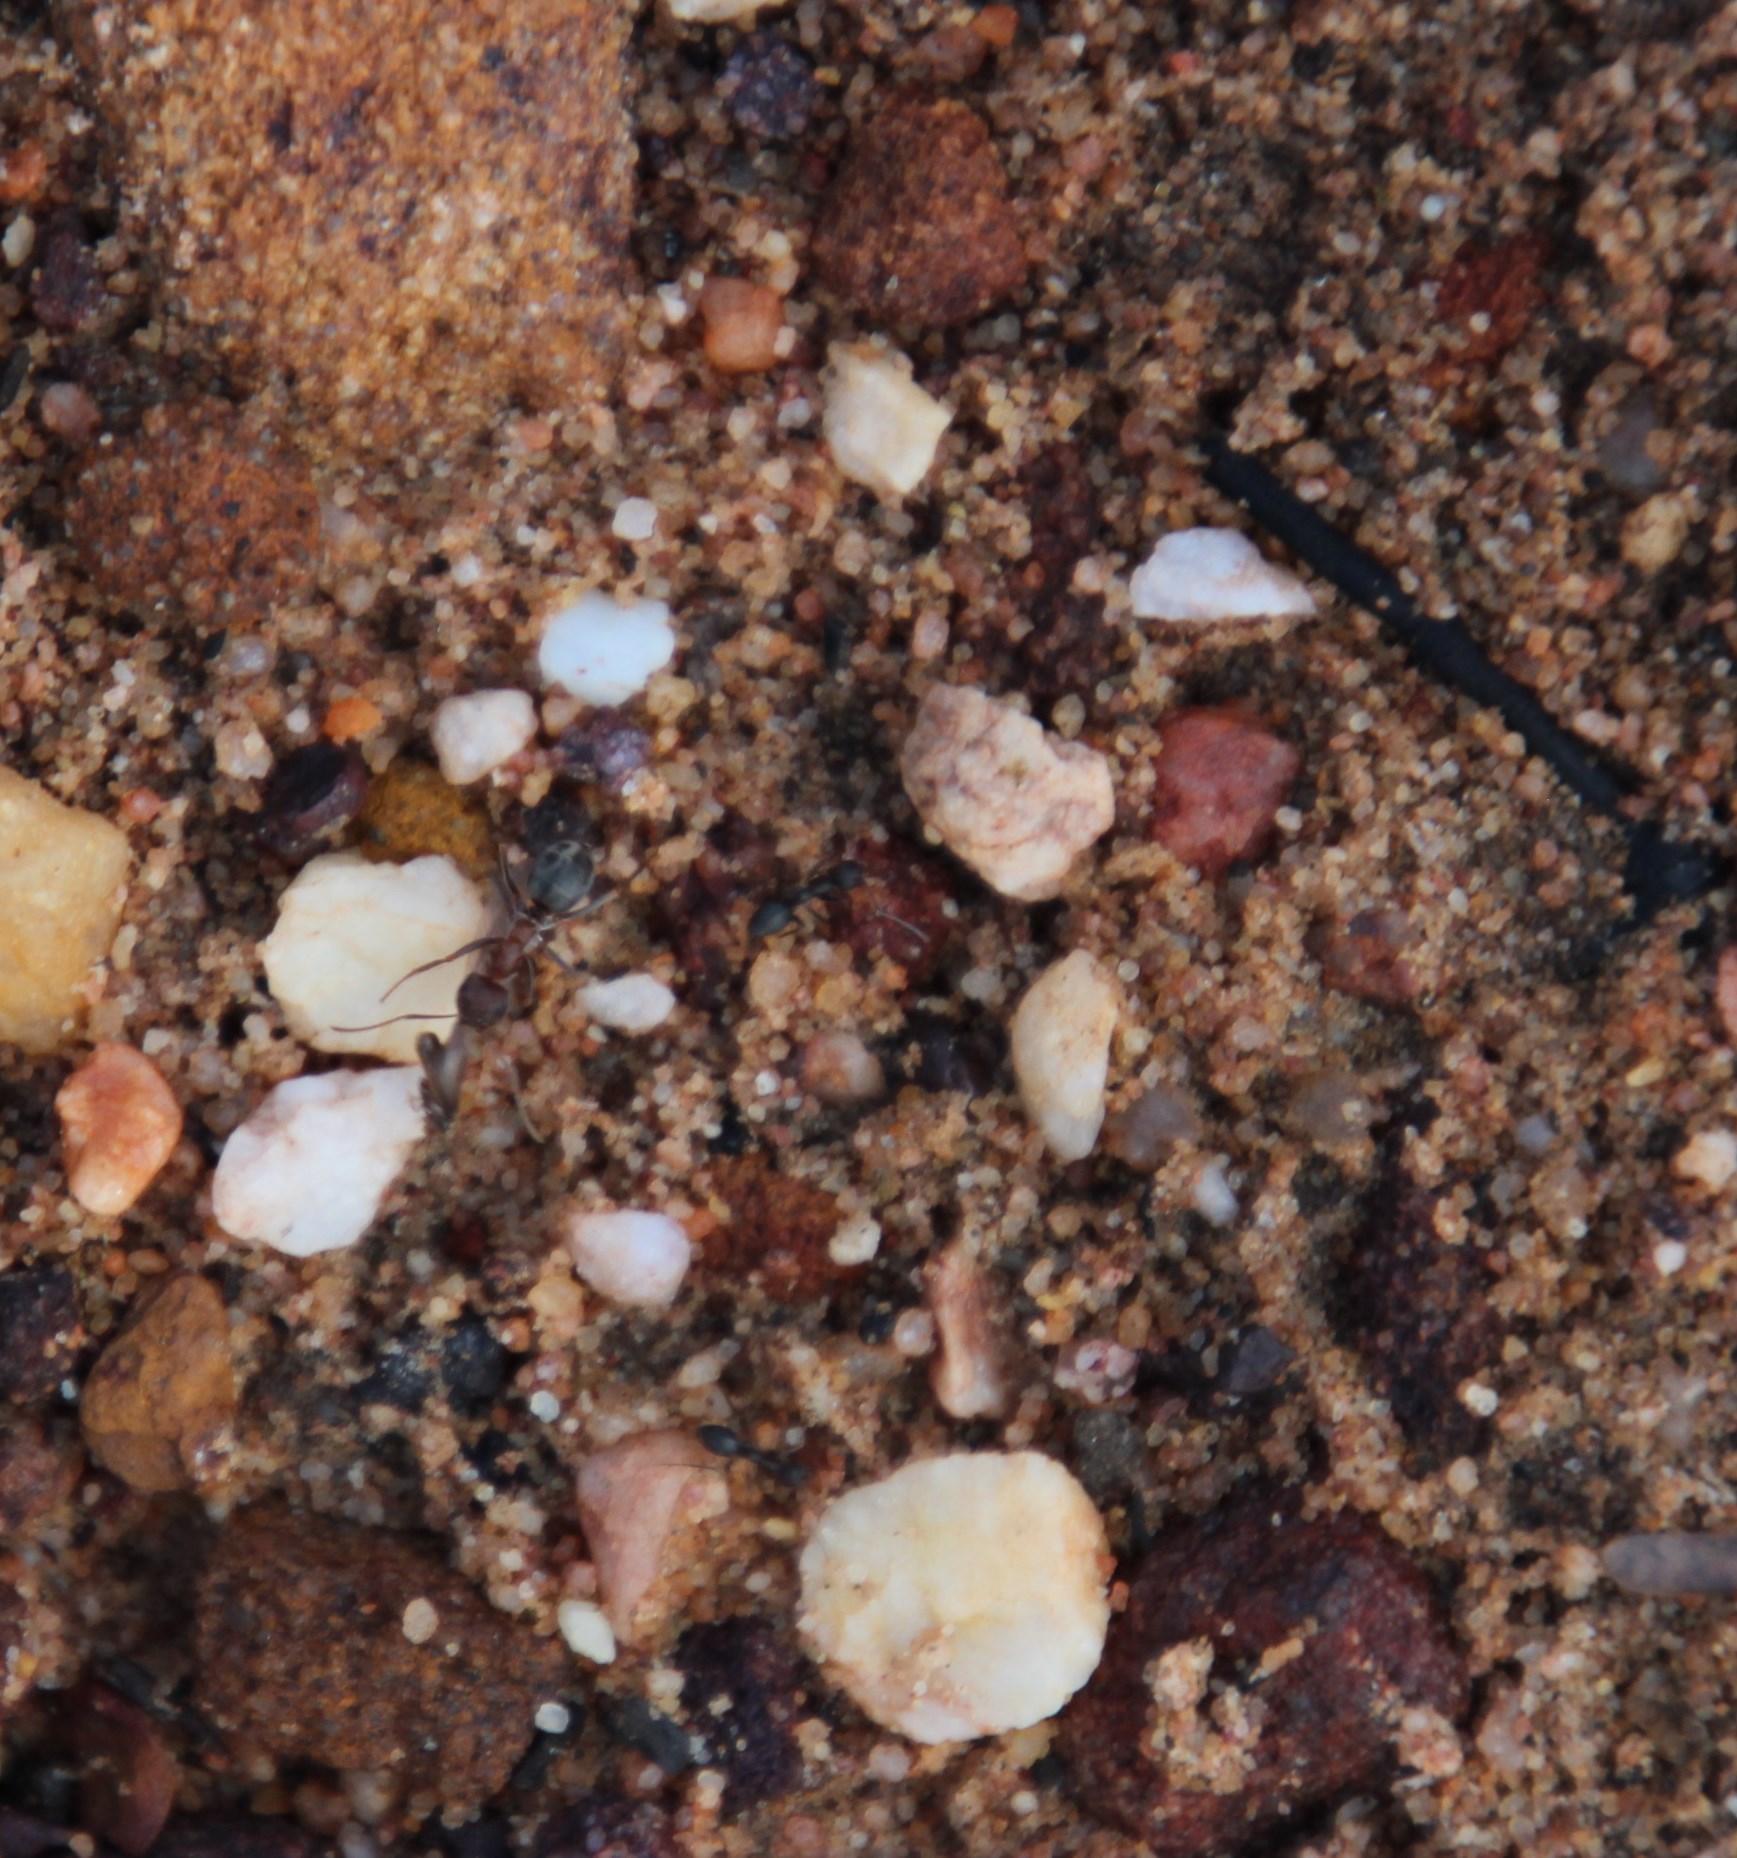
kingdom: Animalia
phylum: Arthropoda
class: Insecta
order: Hymenoptera
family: Formicidae
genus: Anoplolepis
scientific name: Anoplolepis steingroeveri
